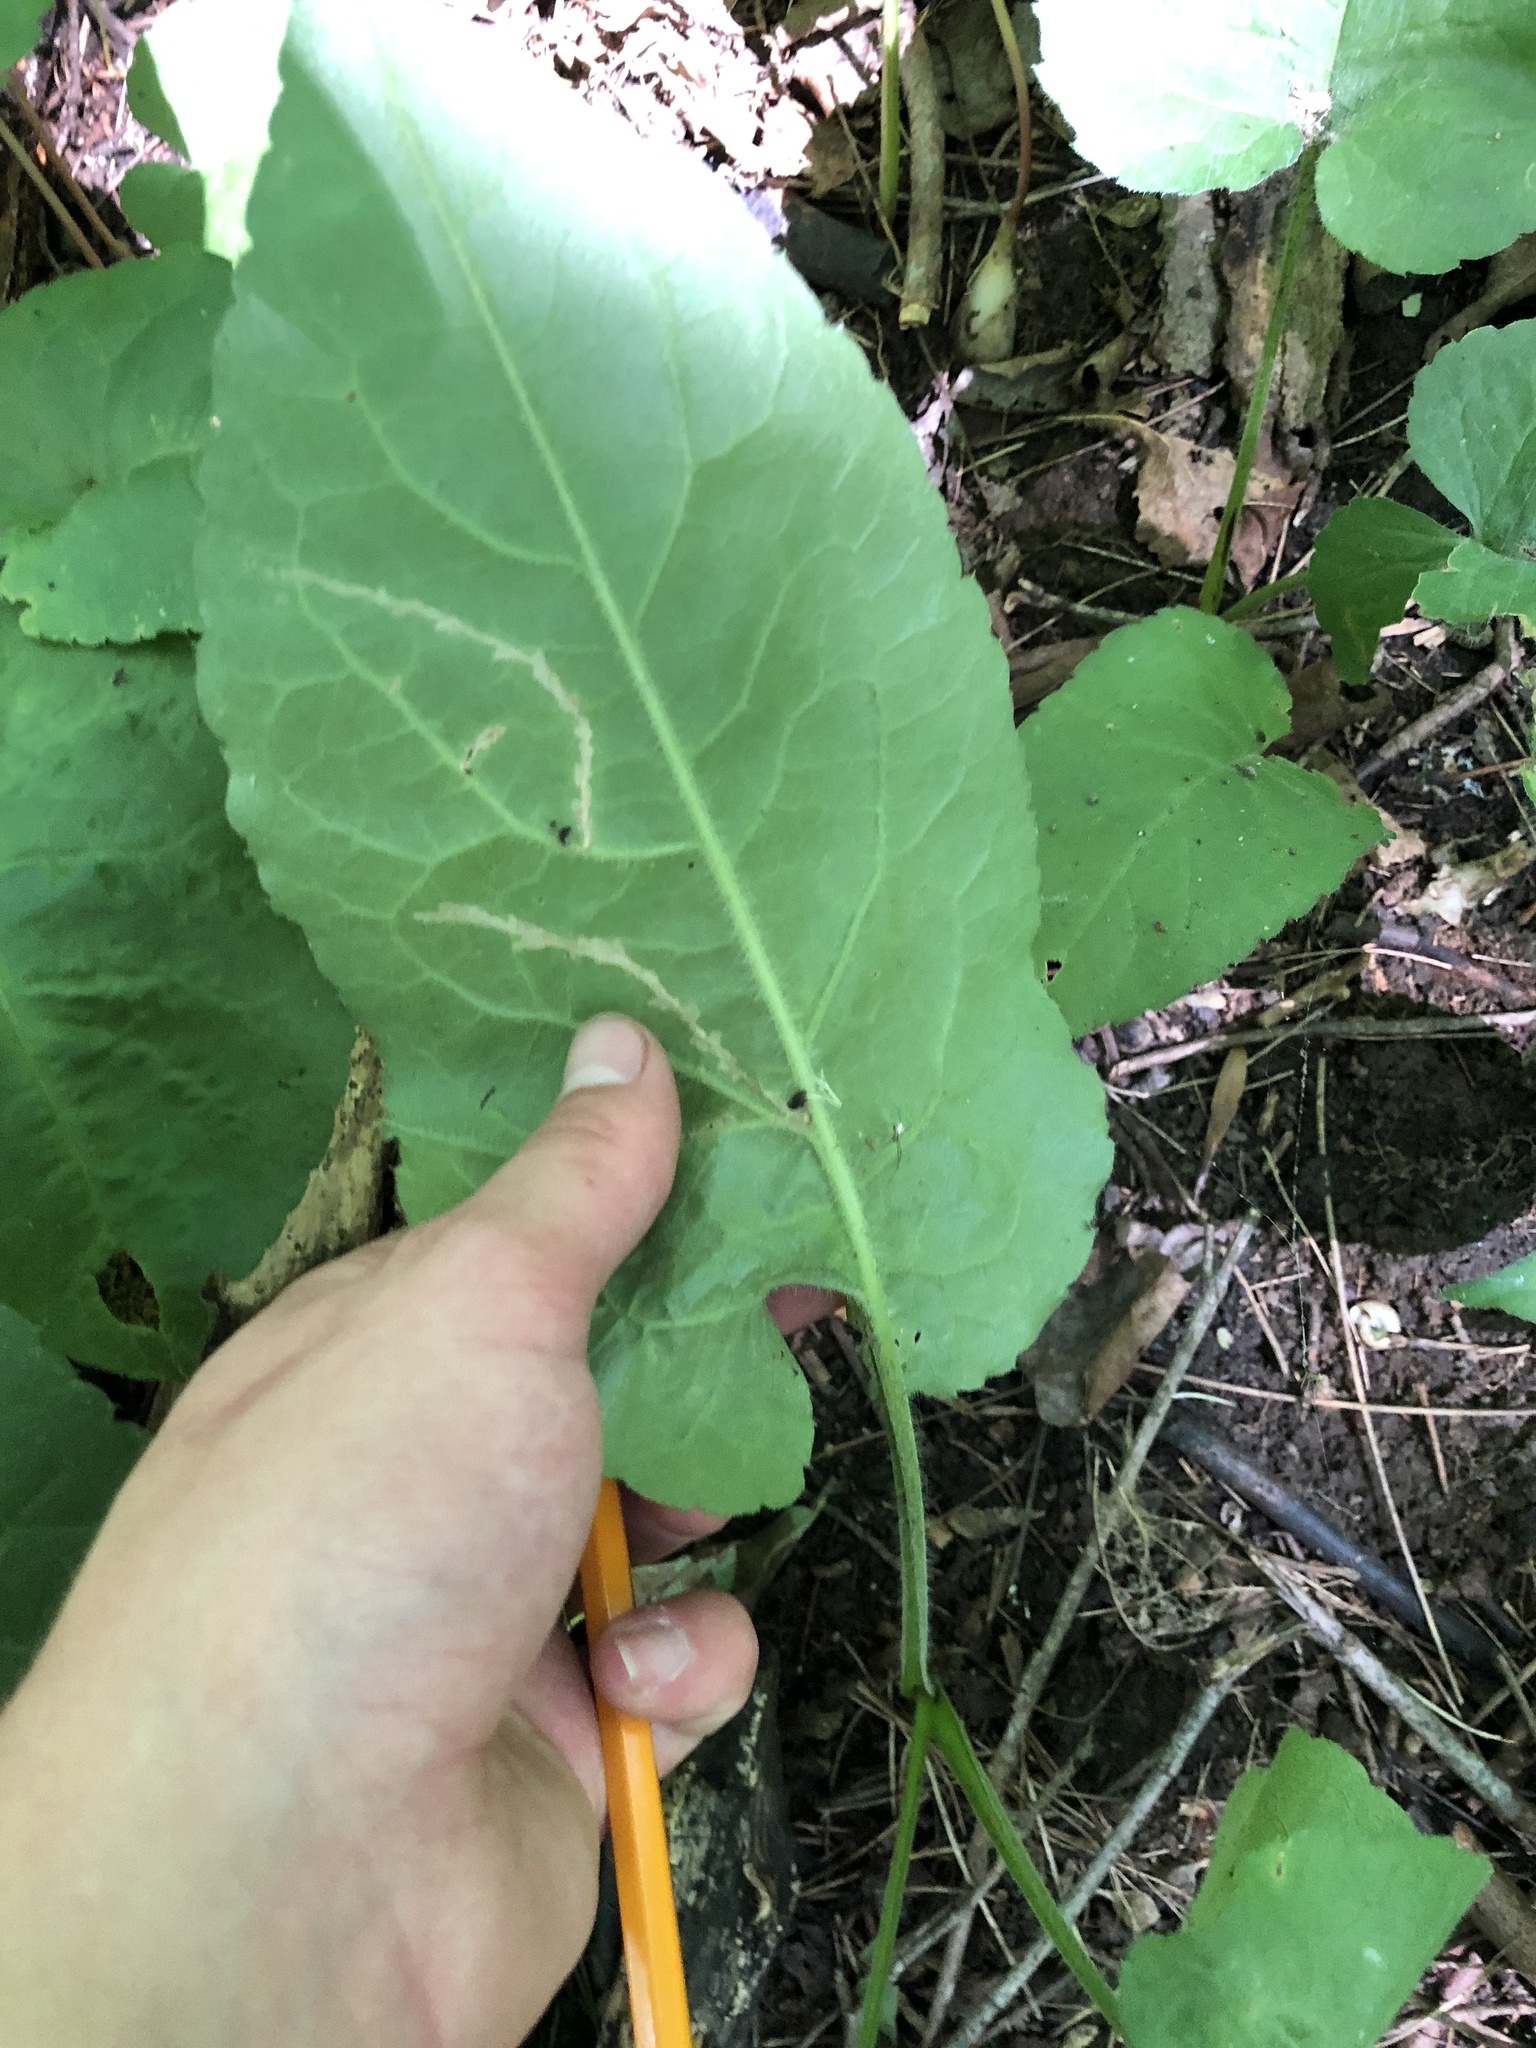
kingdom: Plantae
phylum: Tracheophyta
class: Magnoliopsida
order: Asterales
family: Asteraceae
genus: Eurybia
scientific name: Eurybia macrophylla
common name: Big-leaved aster
